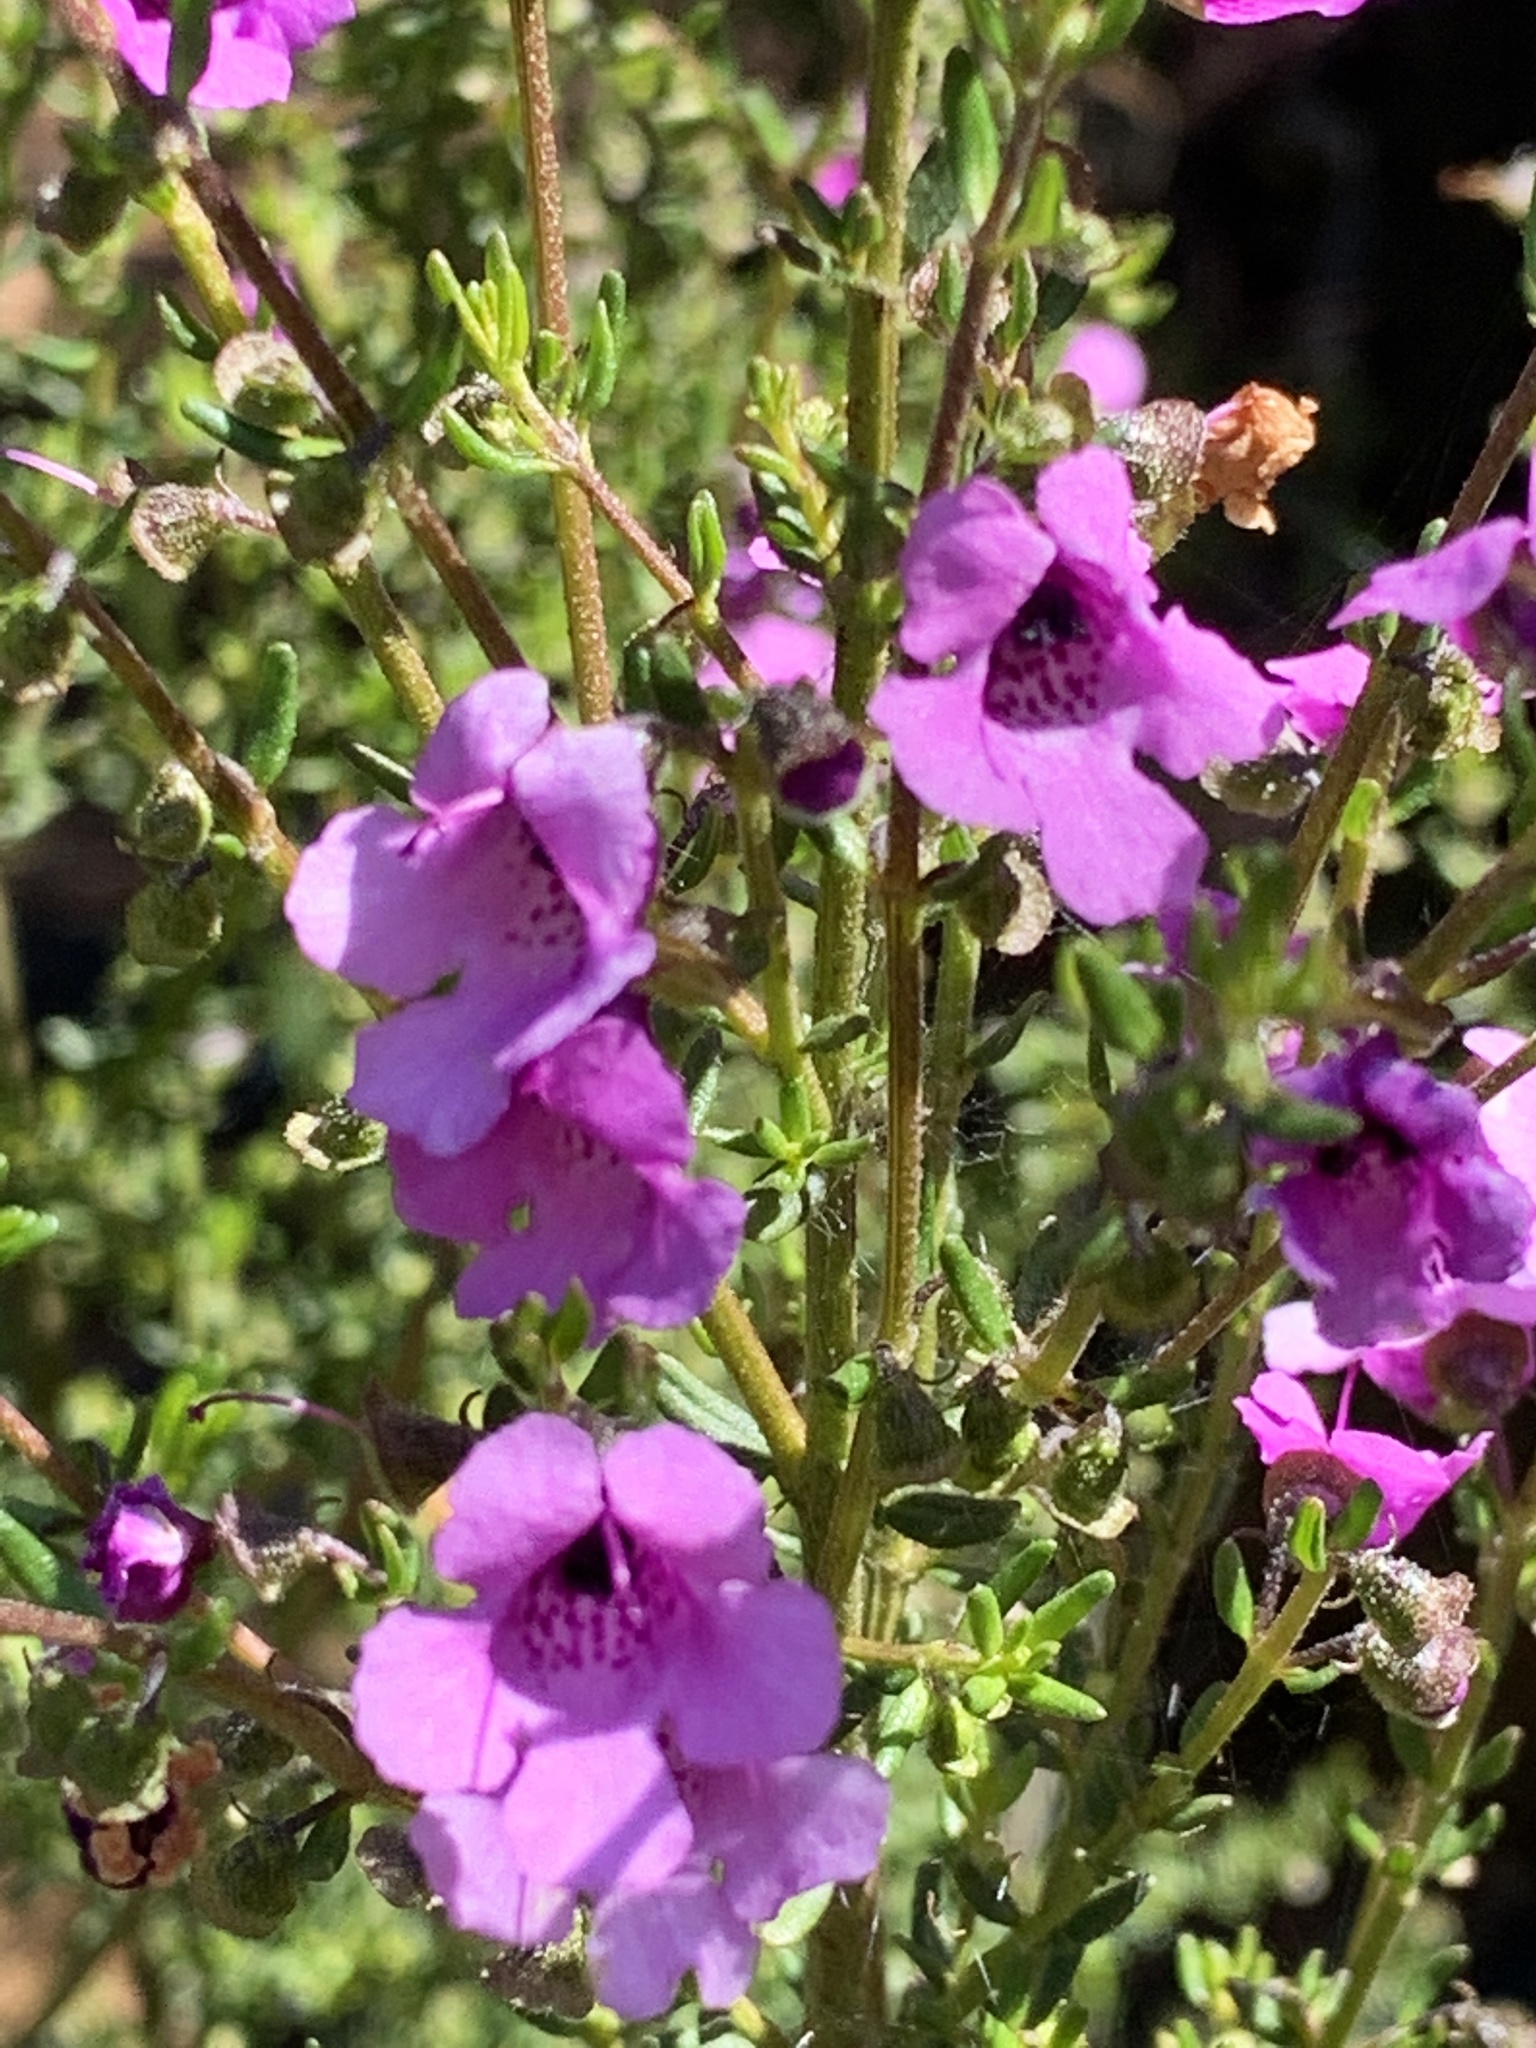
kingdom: Plantae
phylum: Tracheophyta
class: Magnoliopsida
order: Lamiales
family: Lamiaceae
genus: Prostanthera
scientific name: Prostanthera howelliae
